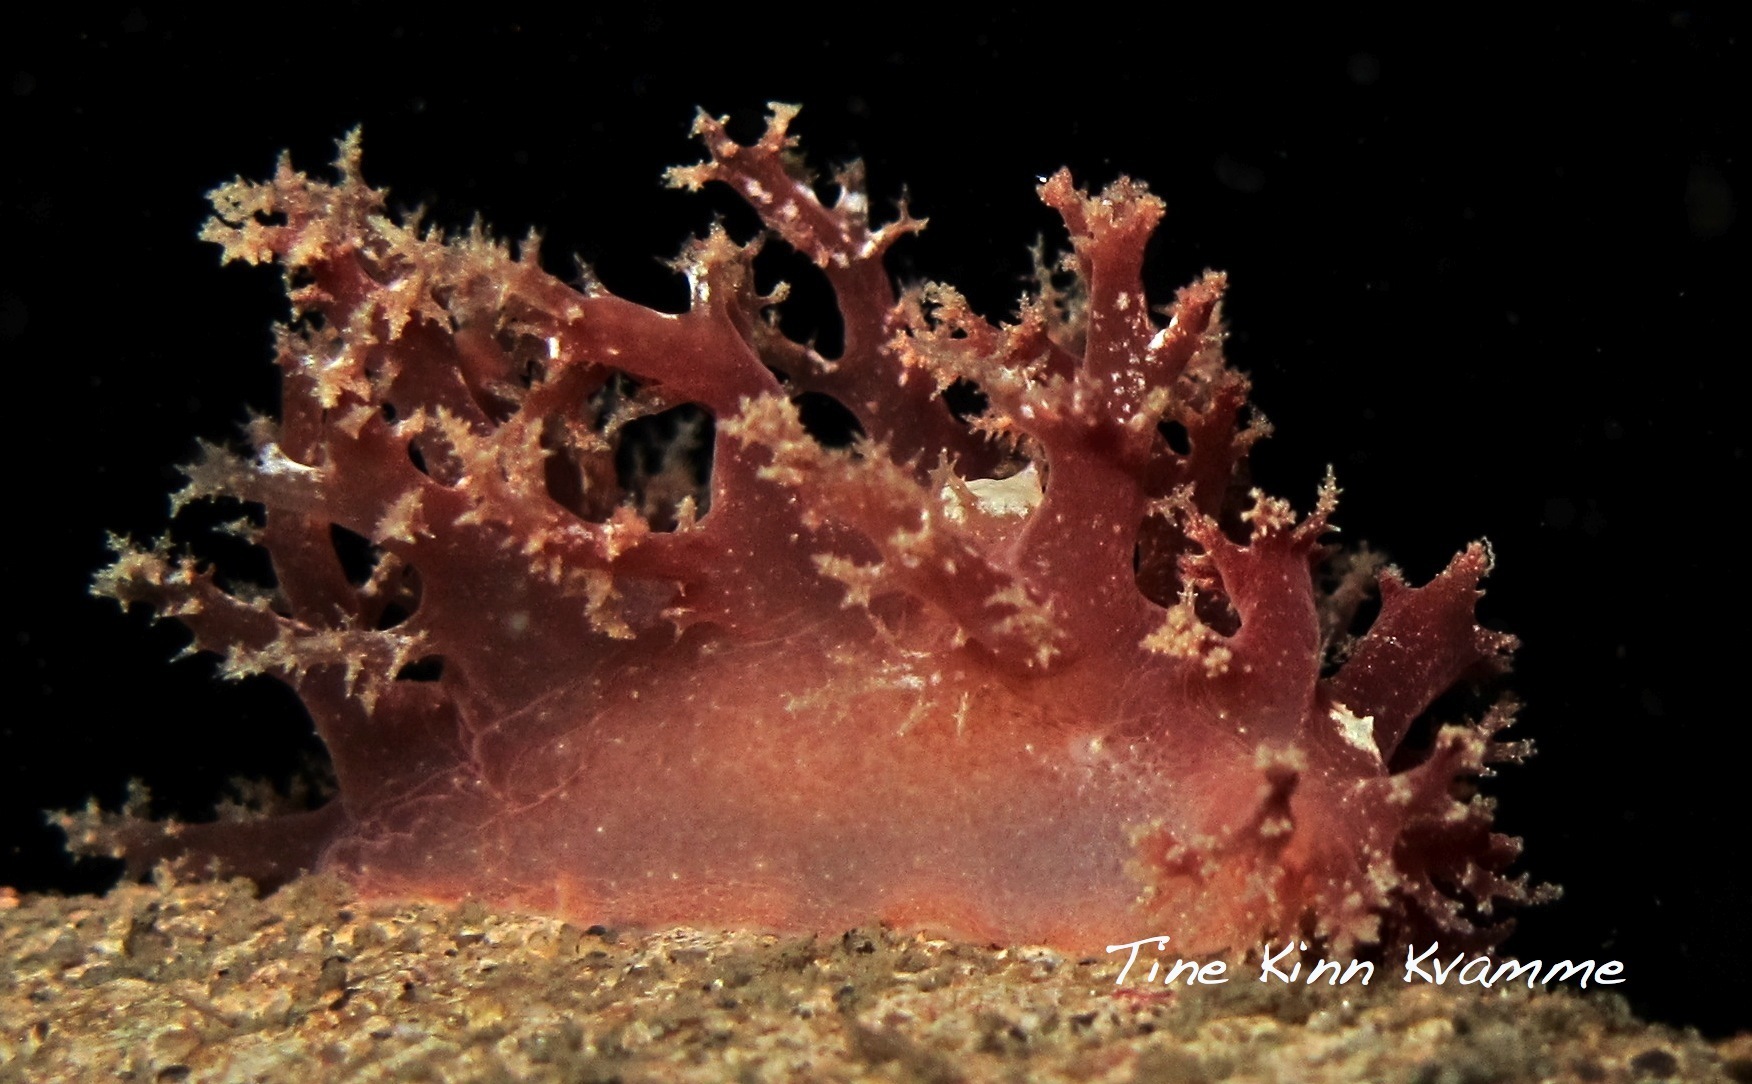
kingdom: Animalia
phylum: Mollusca
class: Gastropoda
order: Nudibranchia
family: Dendronotidae
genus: Dendronotus
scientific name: Dendronotus frondosus
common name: Bushy-backed nudibranch
